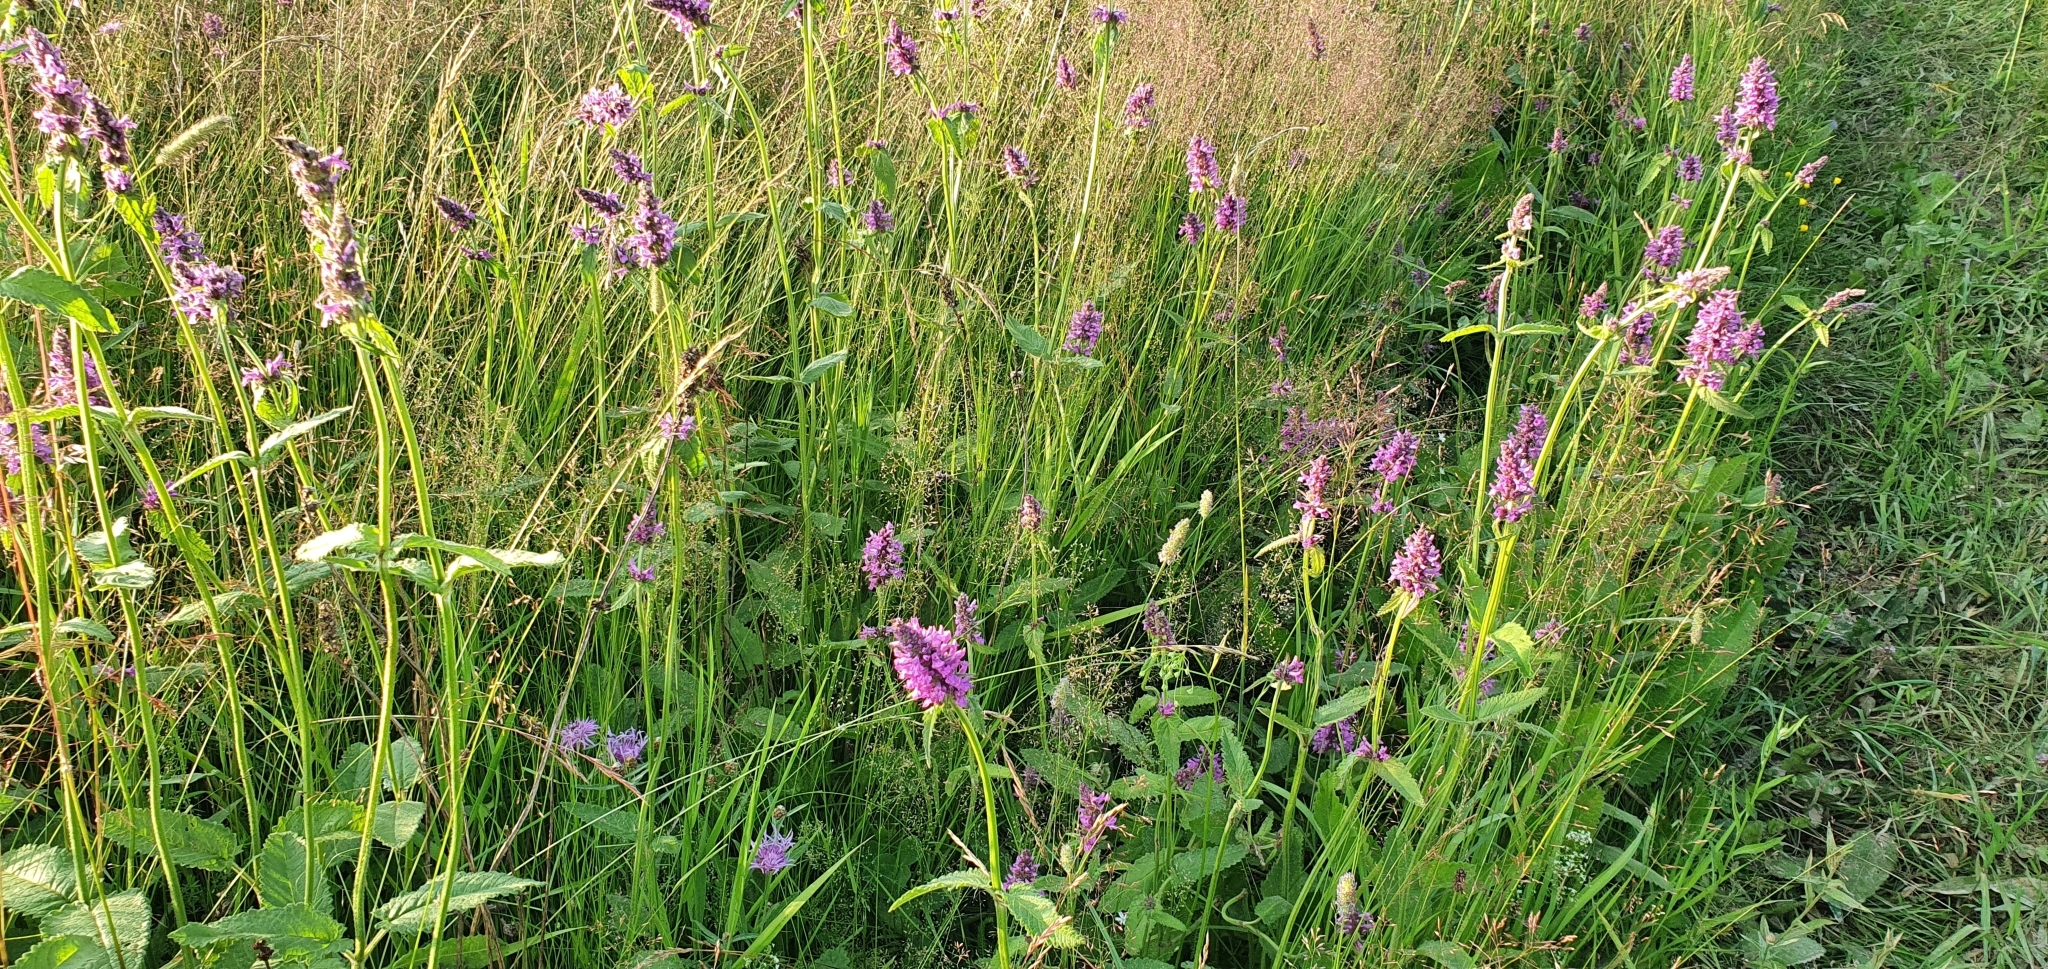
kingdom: Plantae
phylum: Tracheophyta
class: Magnoliopsida
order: Lamiales
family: Lamiaceae
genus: Betonica
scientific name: Betonica officinalis
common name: Bishop's-wort
